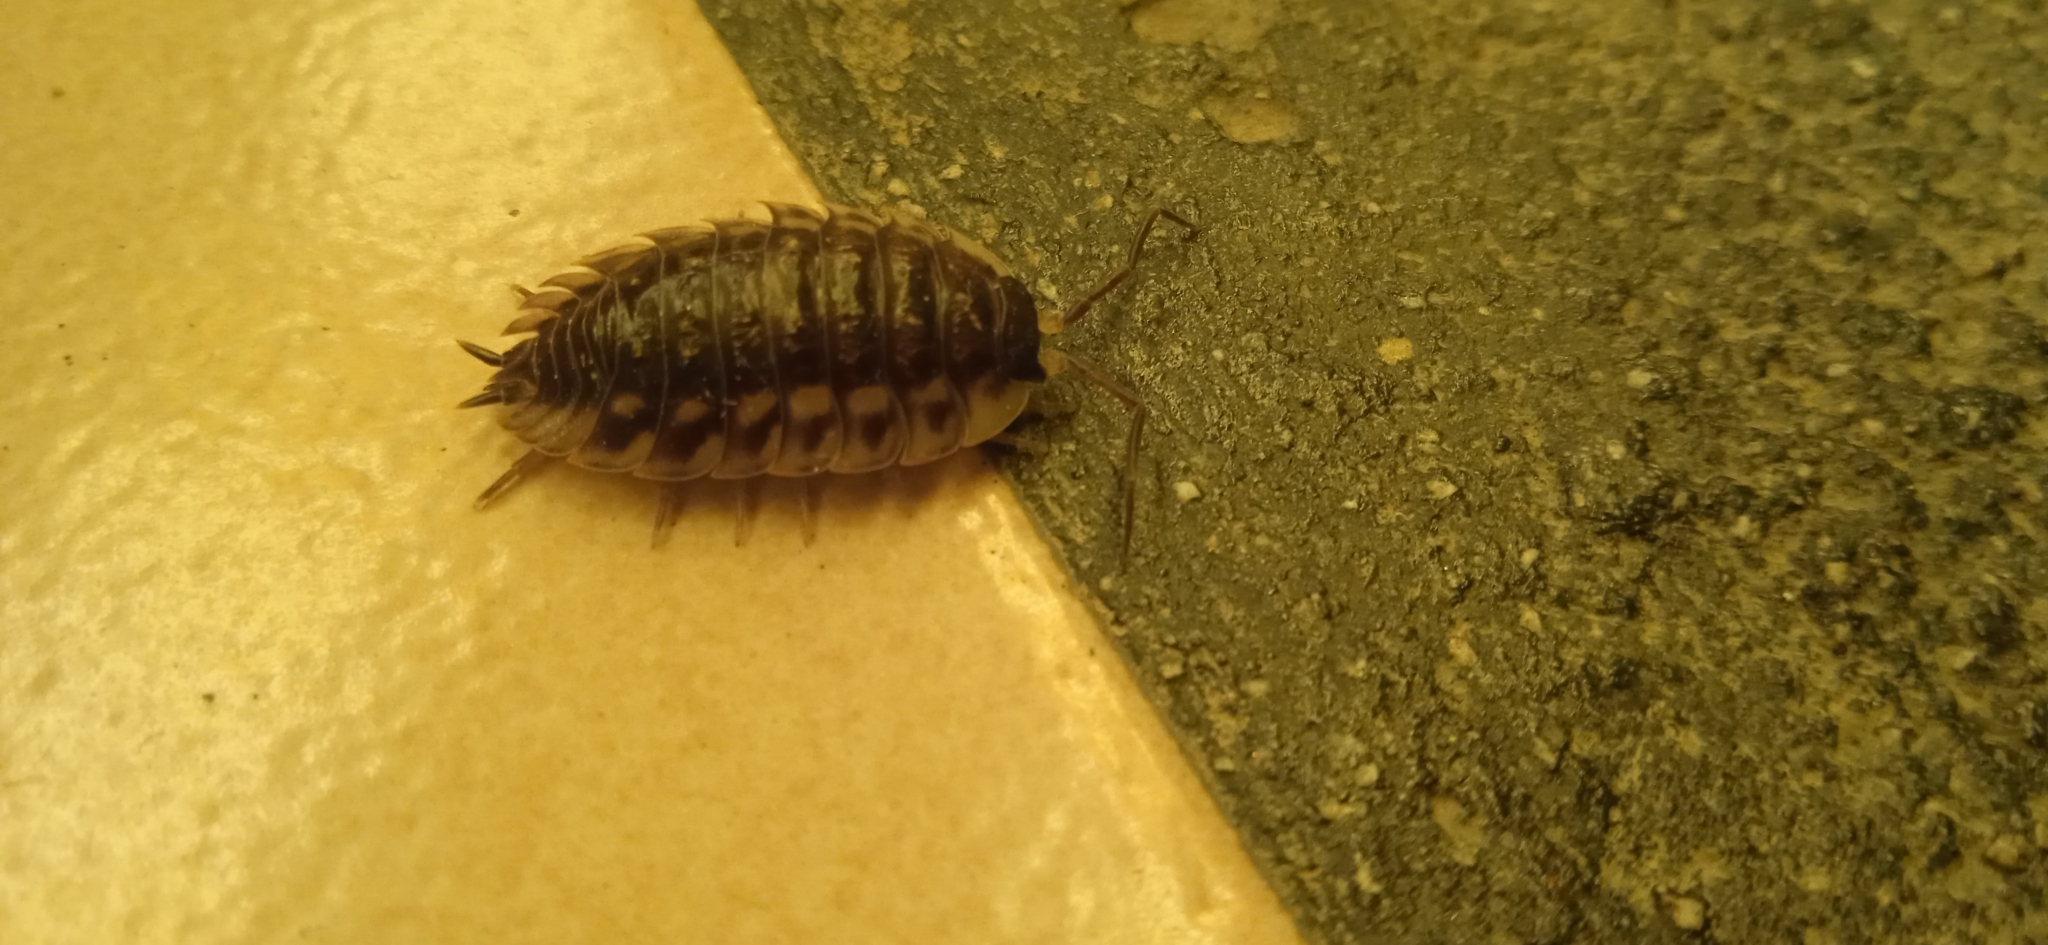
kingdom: Animalia
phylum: Arthropoda
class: Malacostraca
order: Isopoda
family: Oniscidae
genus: Oniscus
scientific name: Oniscus asellus
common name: Common shiny woodlouse
